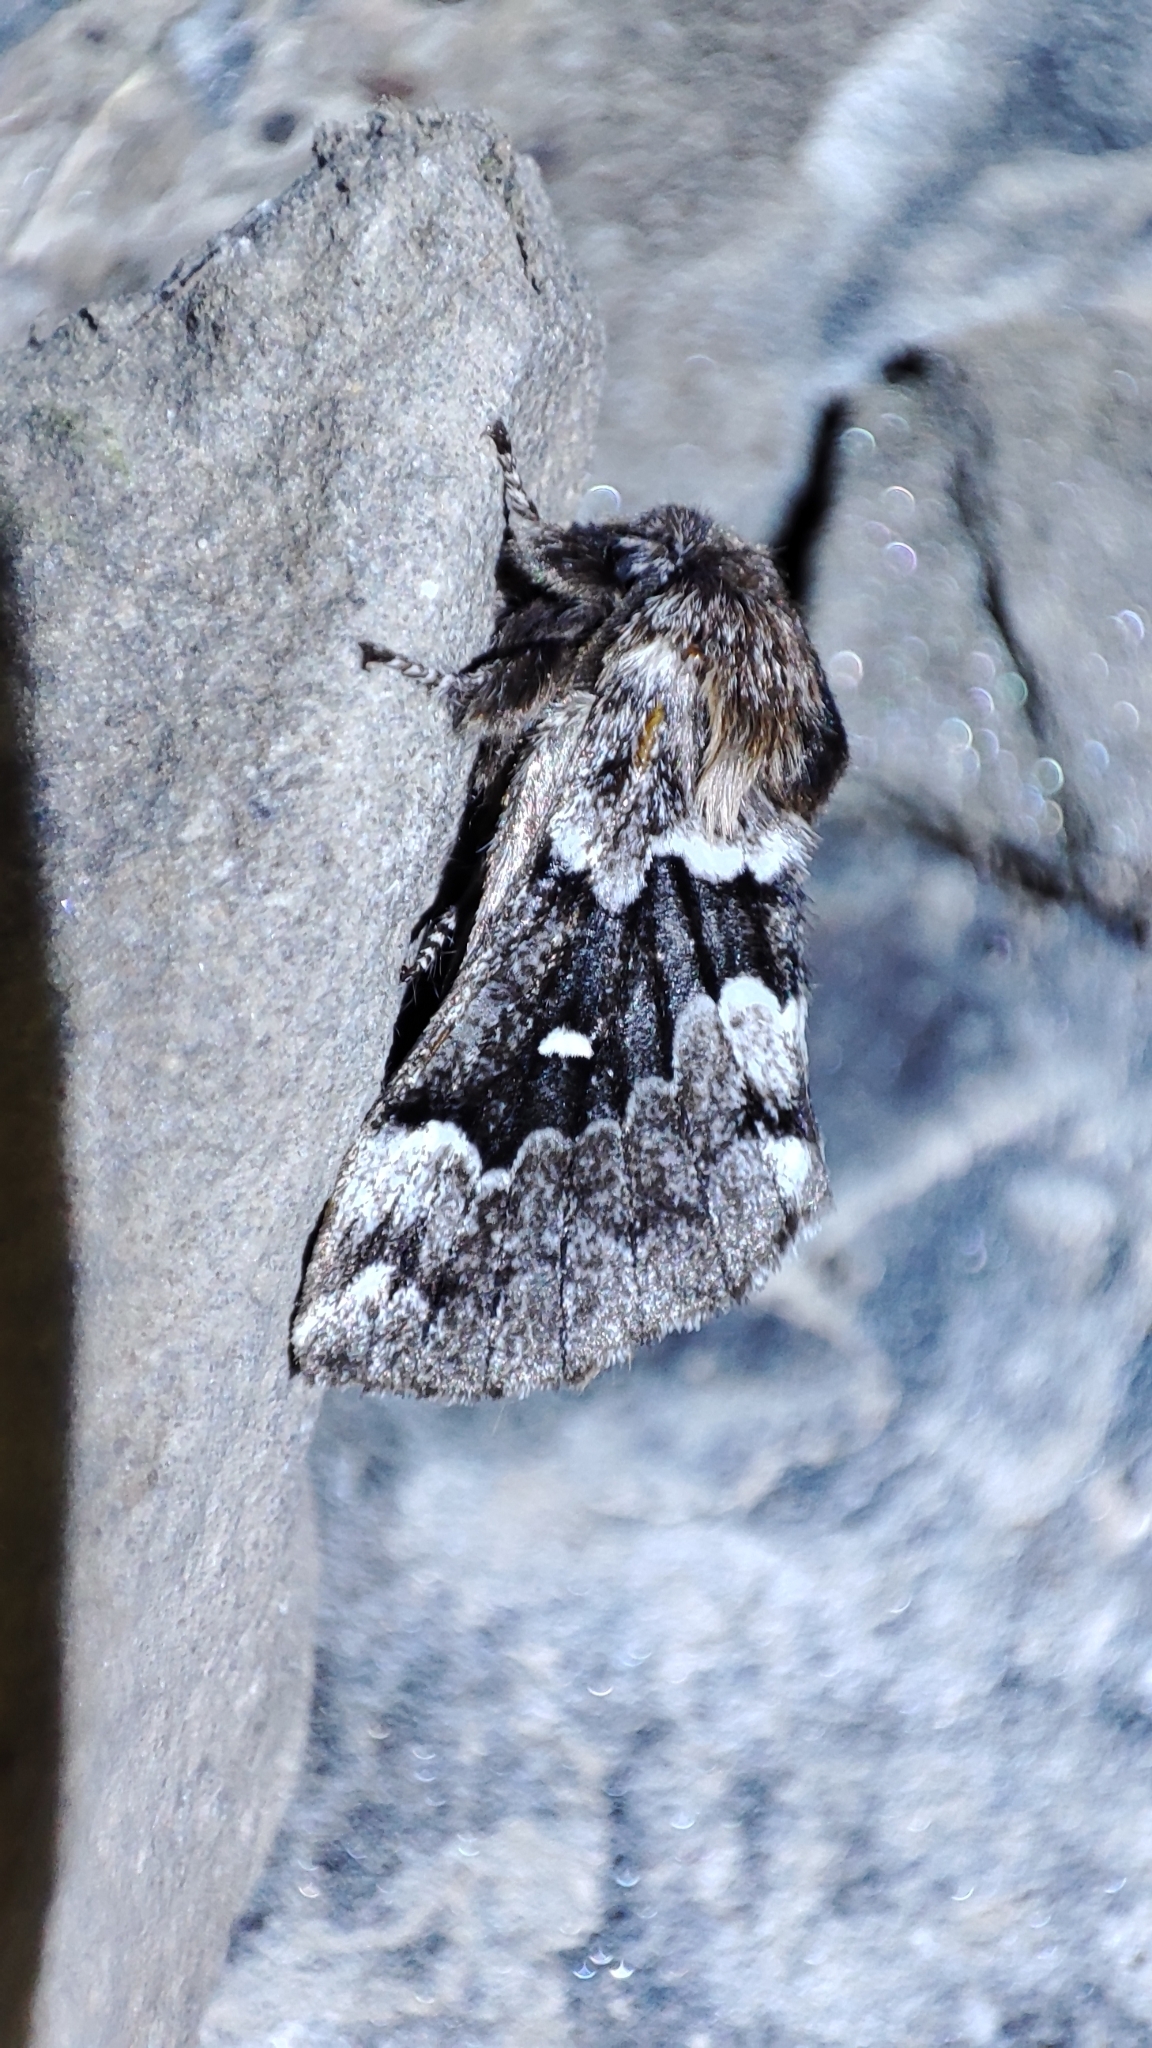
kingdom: Animalia
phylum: Arthropoda
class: Insecta
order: Lepidoptera
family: Lasiocampidae
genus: Cosmotriche
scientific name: Cosmotriche lobulina
